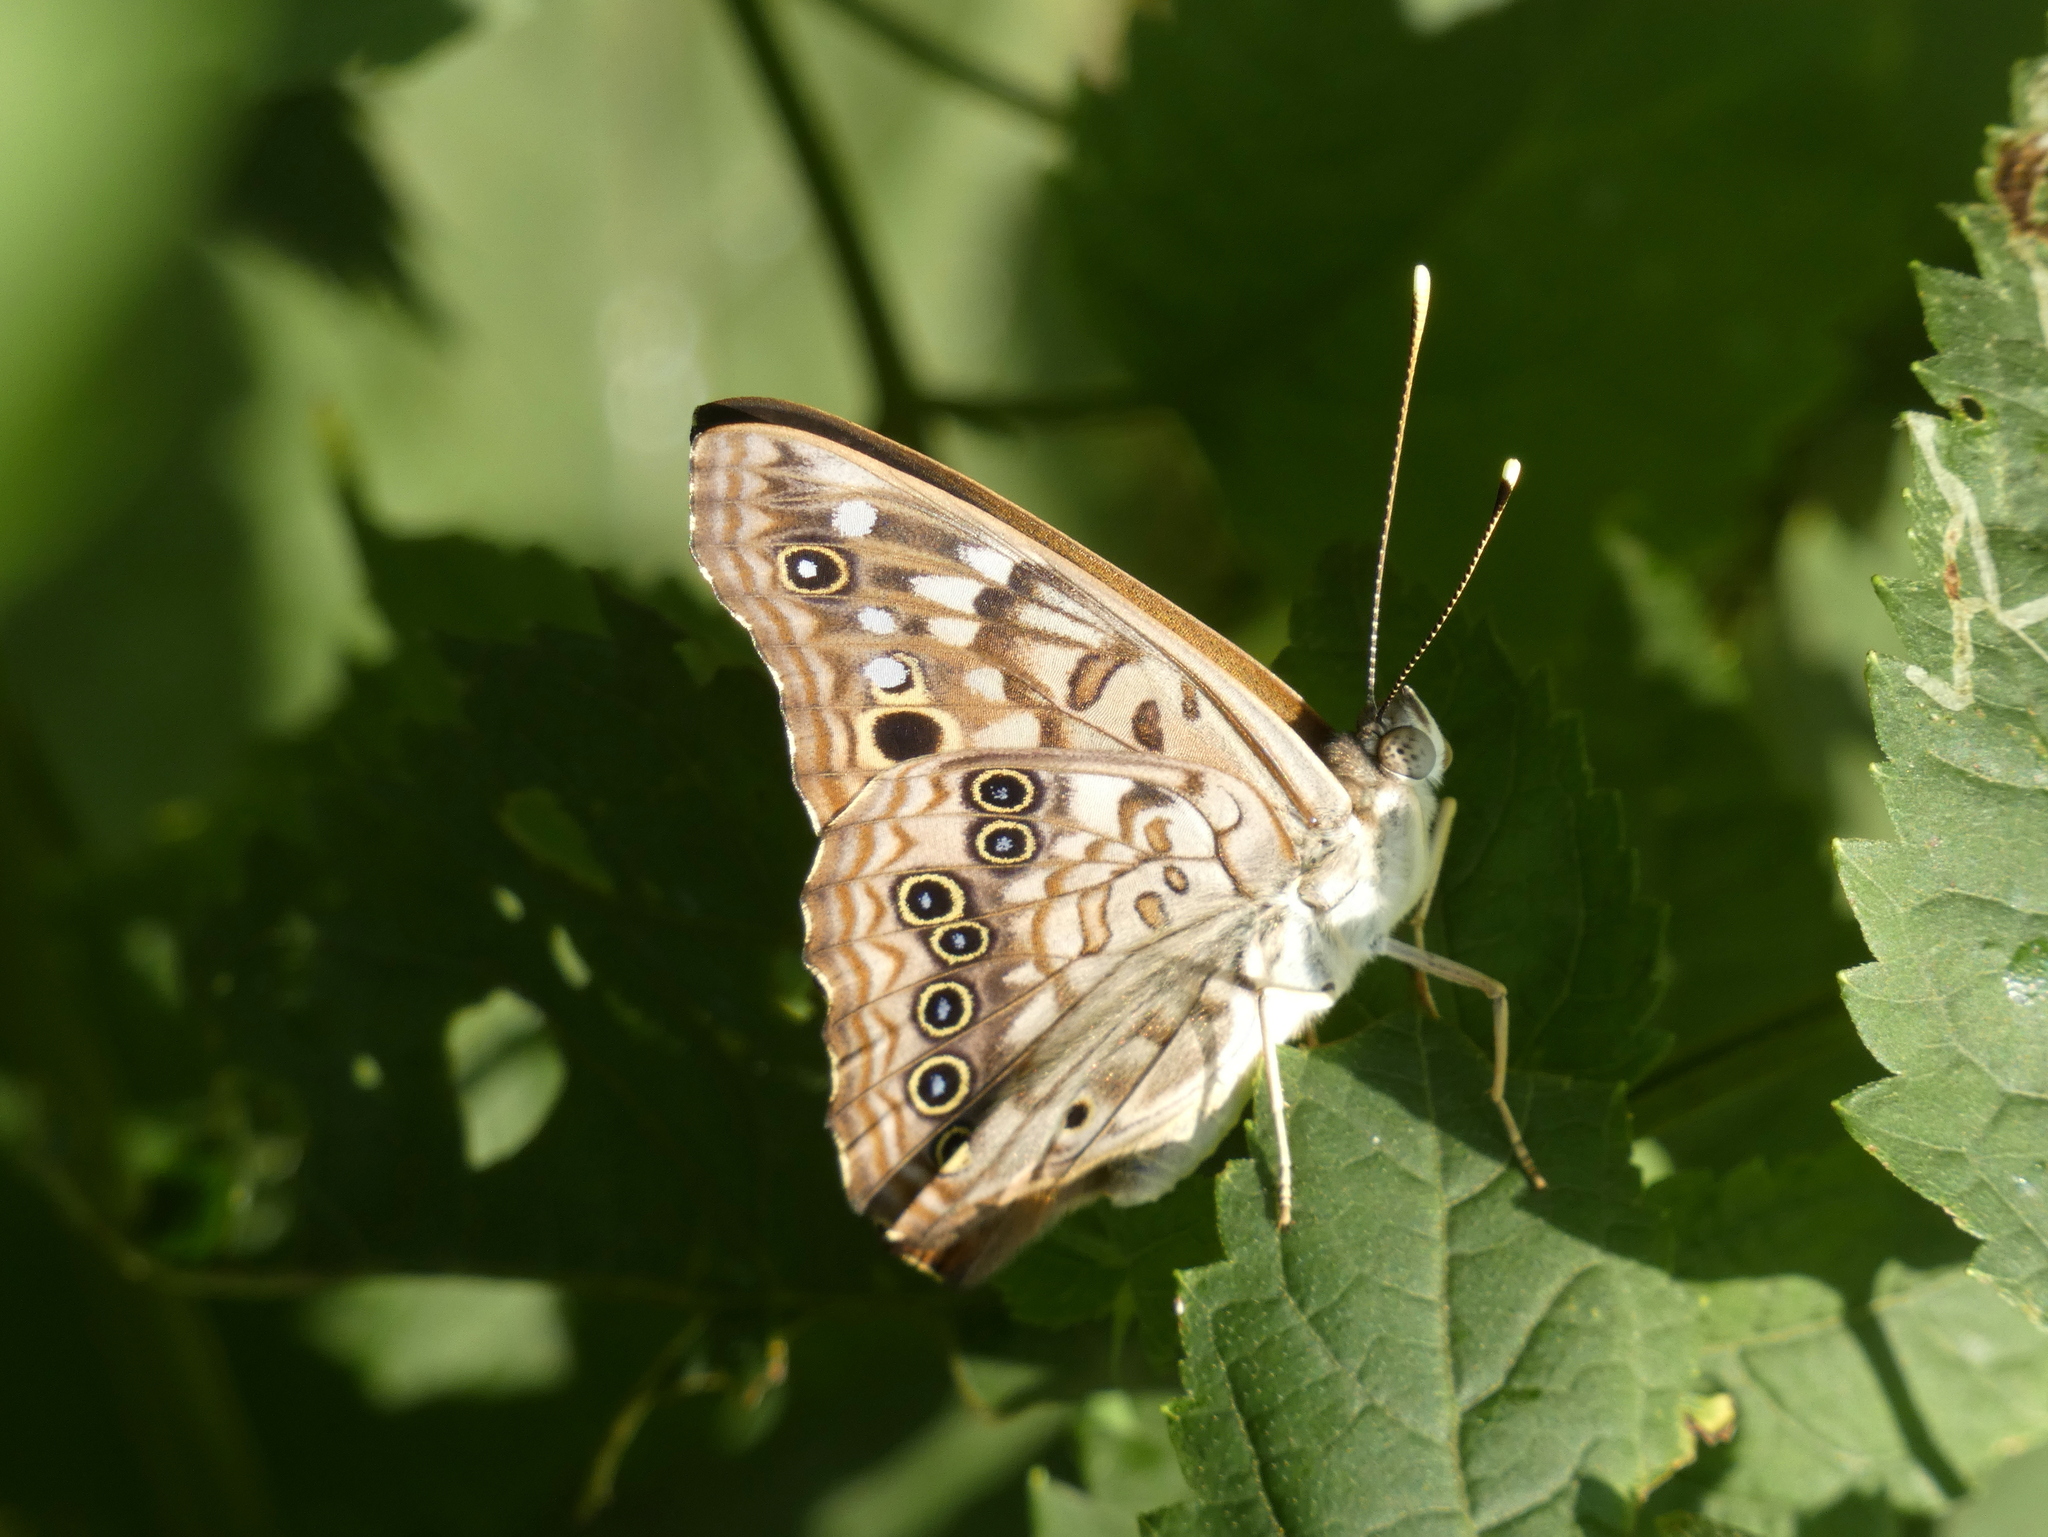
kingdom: Animalia
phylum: Arthropoda
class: Insecta
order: Lepidoptera
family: Nymphalidae
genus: Asterocampa
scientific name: Asterocampa celtis
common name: Hackberry emperor
